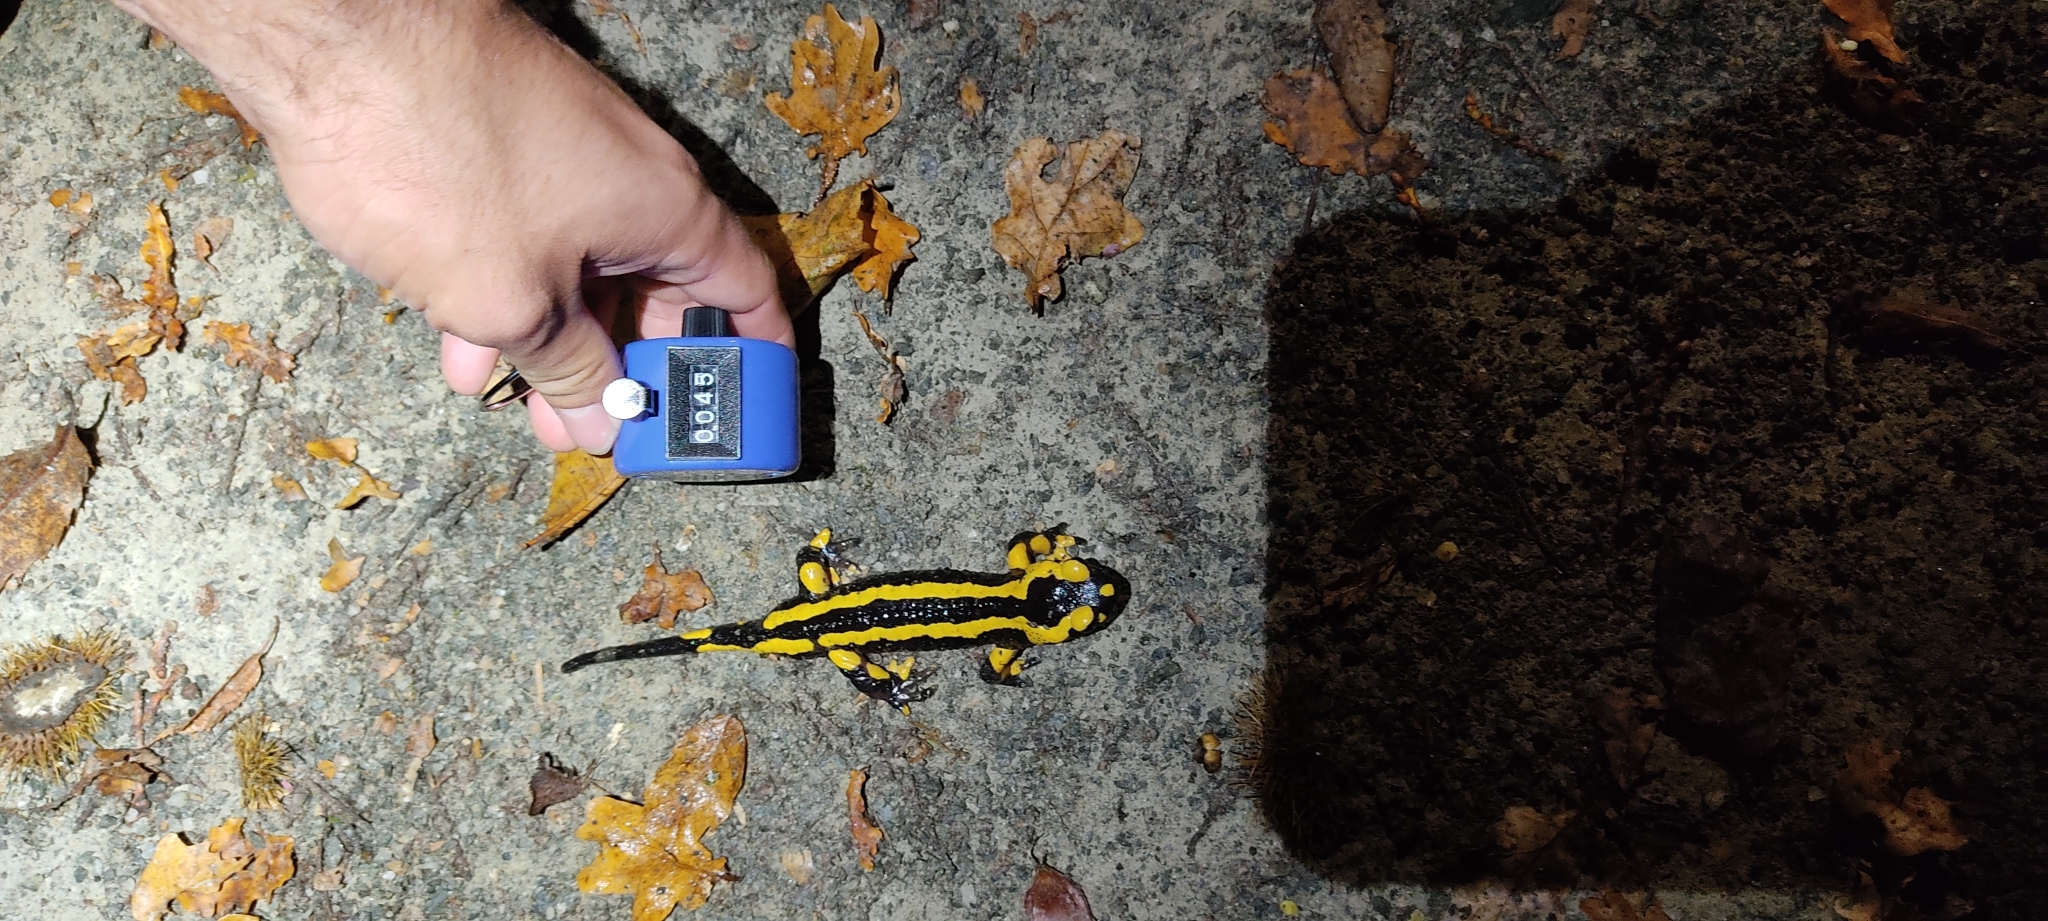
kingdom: Animalia
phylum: Chordata
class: Amphibia
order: Caudata
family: Salamandridae
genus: Salamandra
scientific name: Salamandra salamandra
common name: Fire salamander
